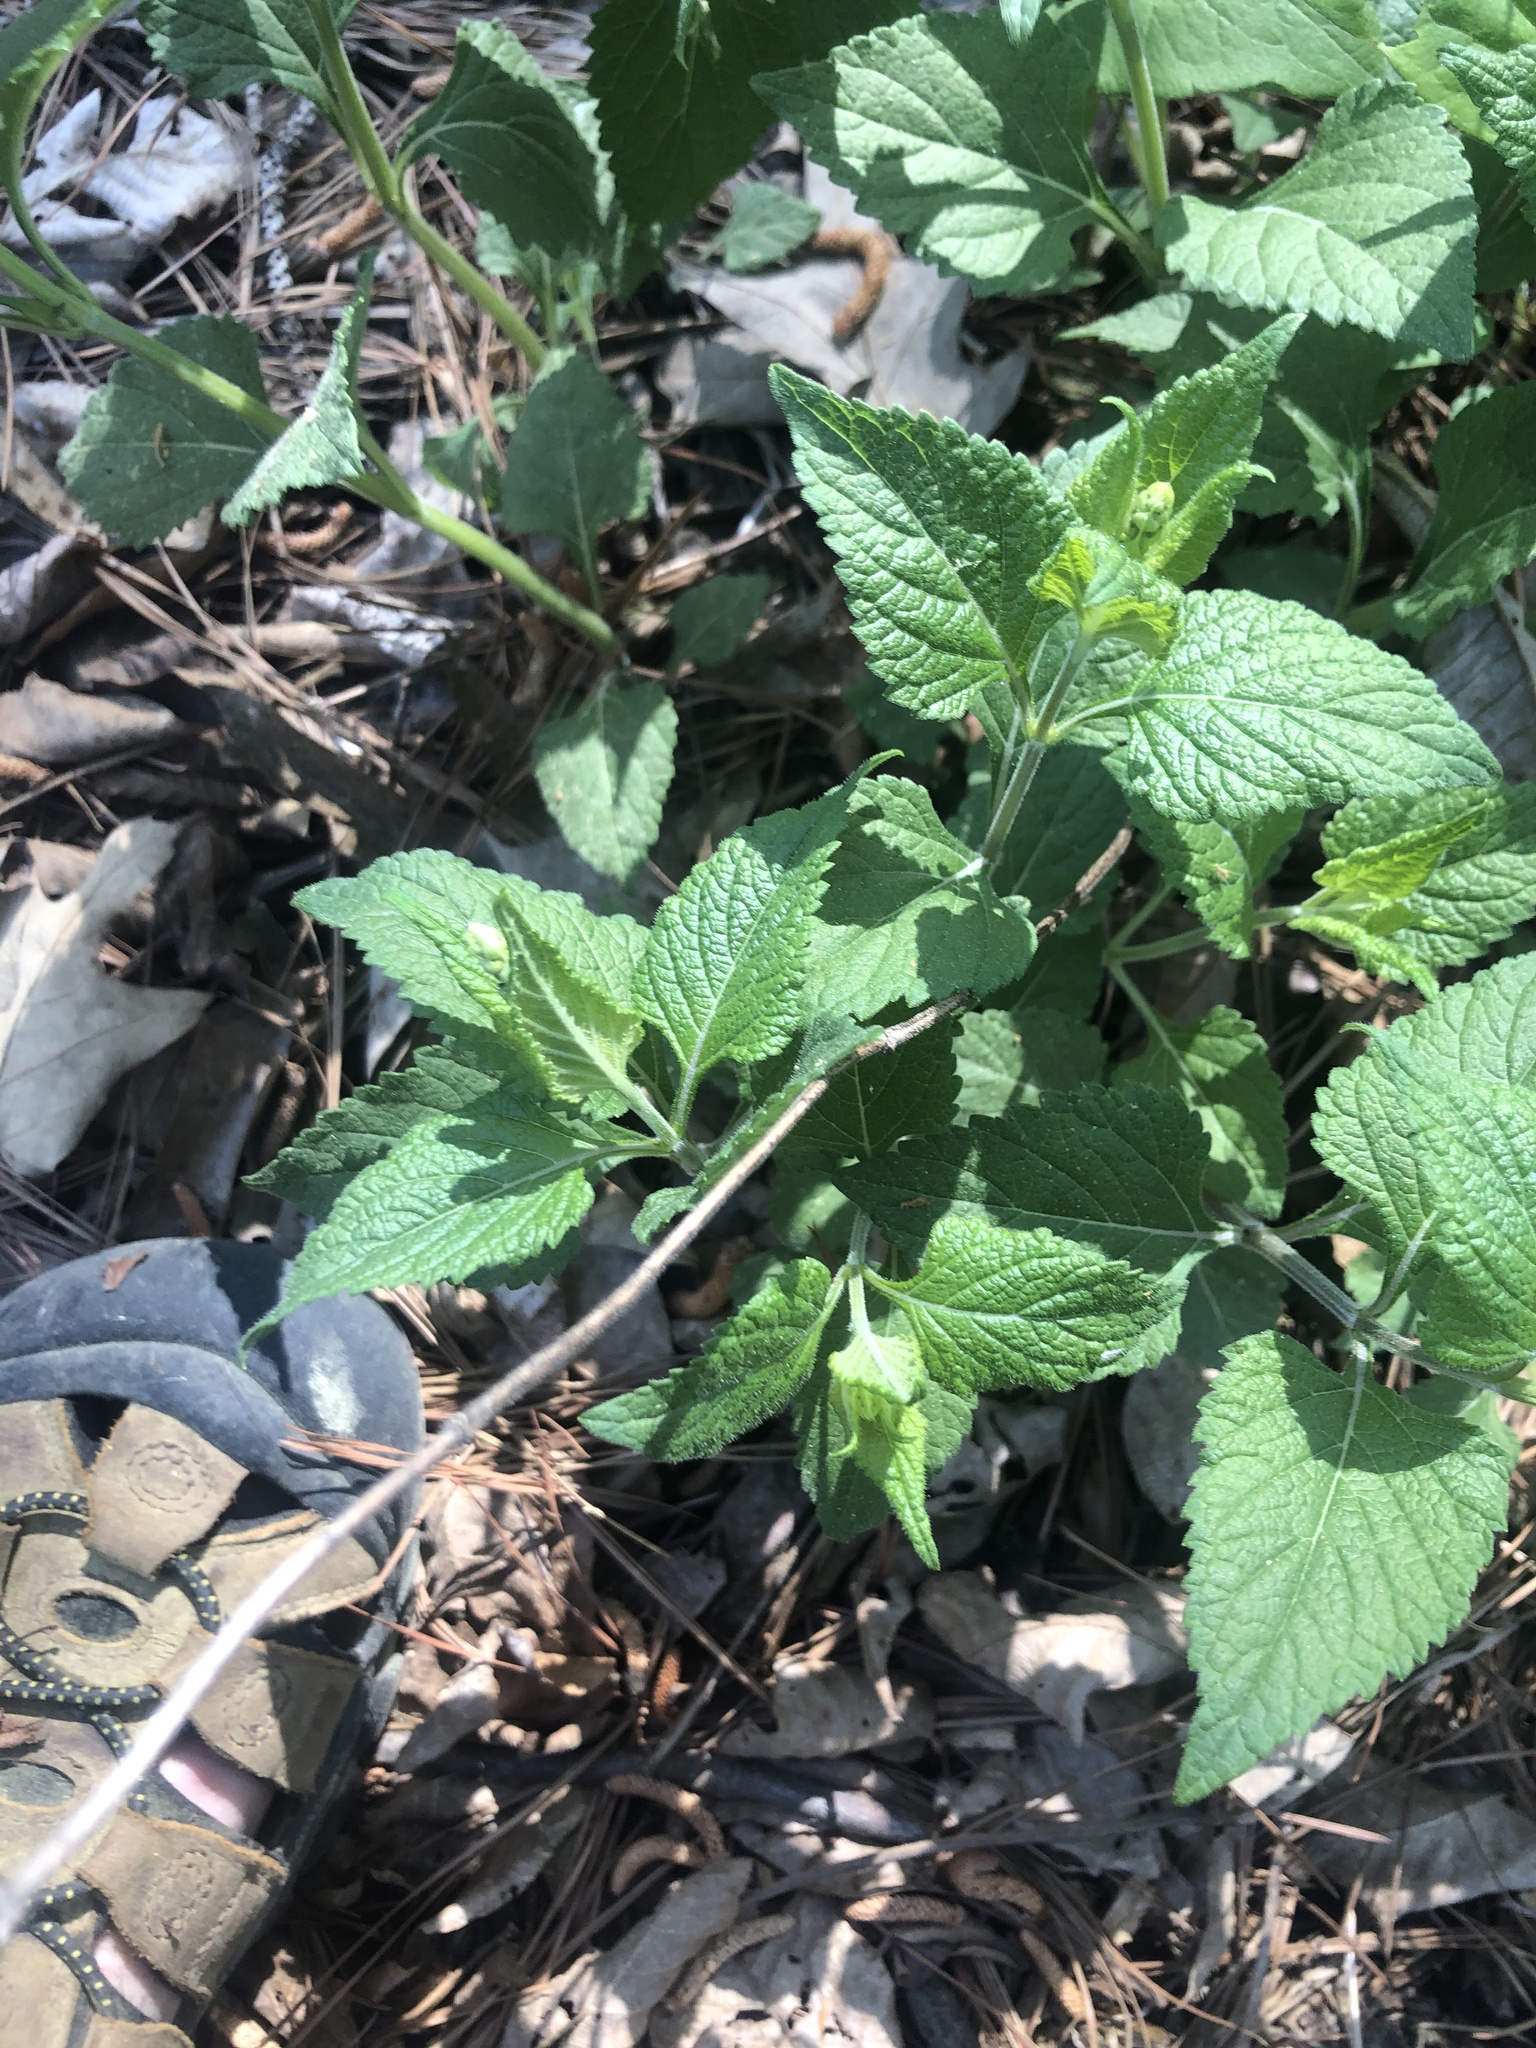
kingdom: Plantae
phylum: Tracheophyta
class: Magnoliopsida
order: Lamiales
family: Lamiaceae
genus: Salvia
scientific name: Salvia urticifolia
